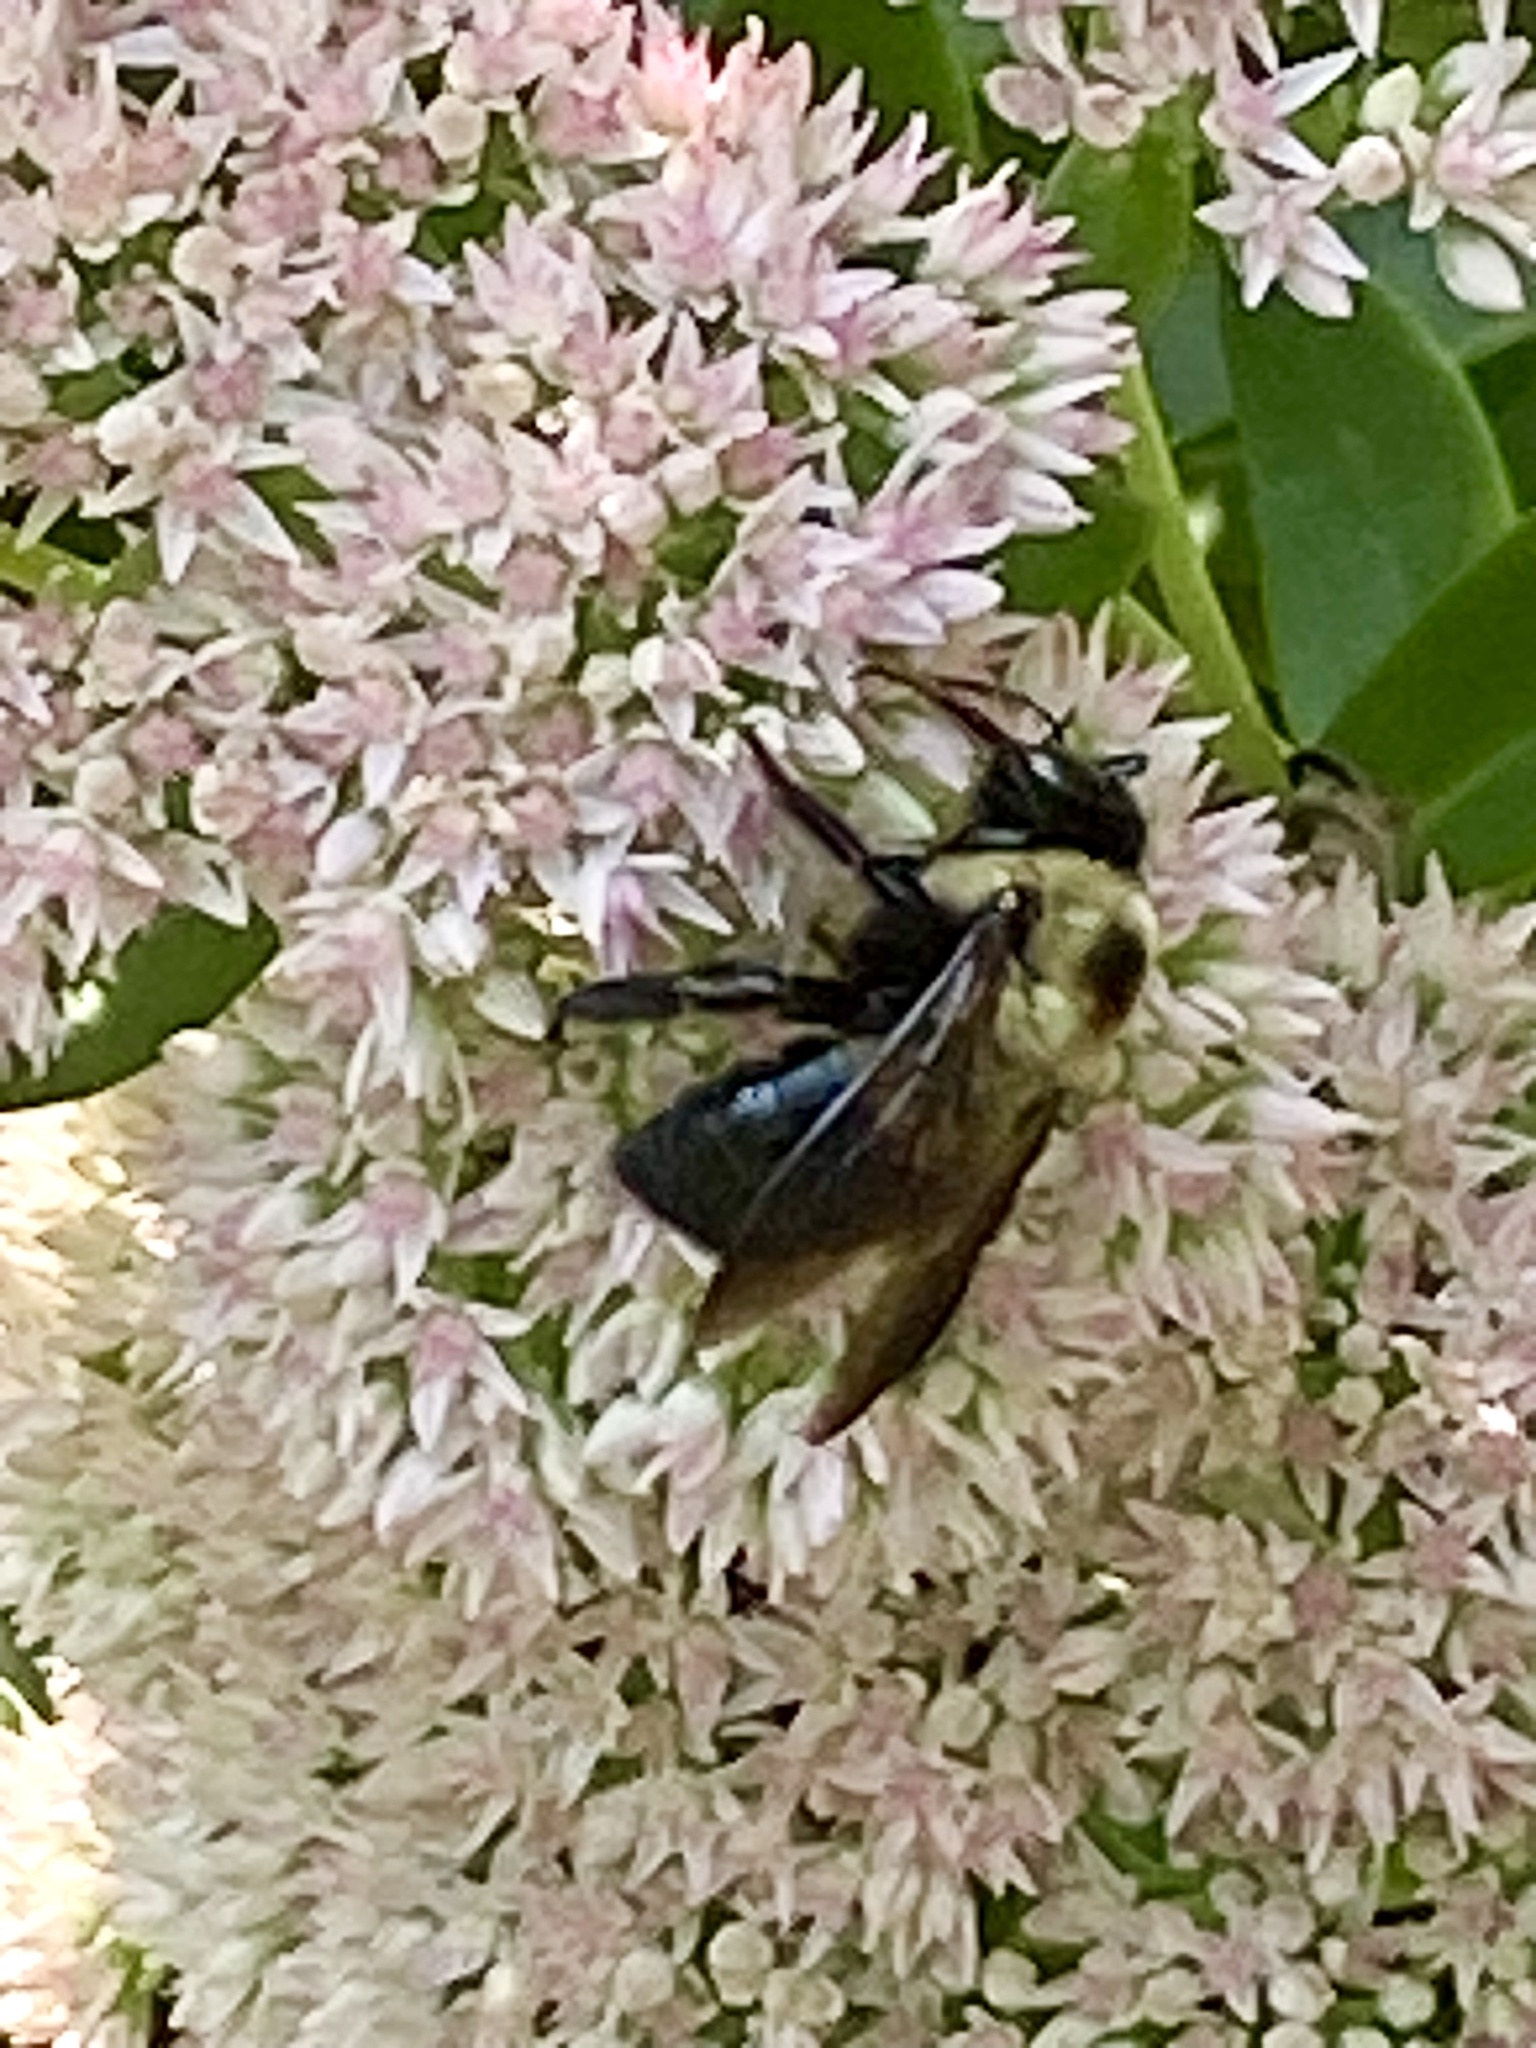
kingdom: Animalia
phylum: Arthropoda
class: Insecta
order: Hymenoptera
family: Apidae
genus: Xylocopa
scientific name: Xylocopa virginica
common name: Carpenter bee
